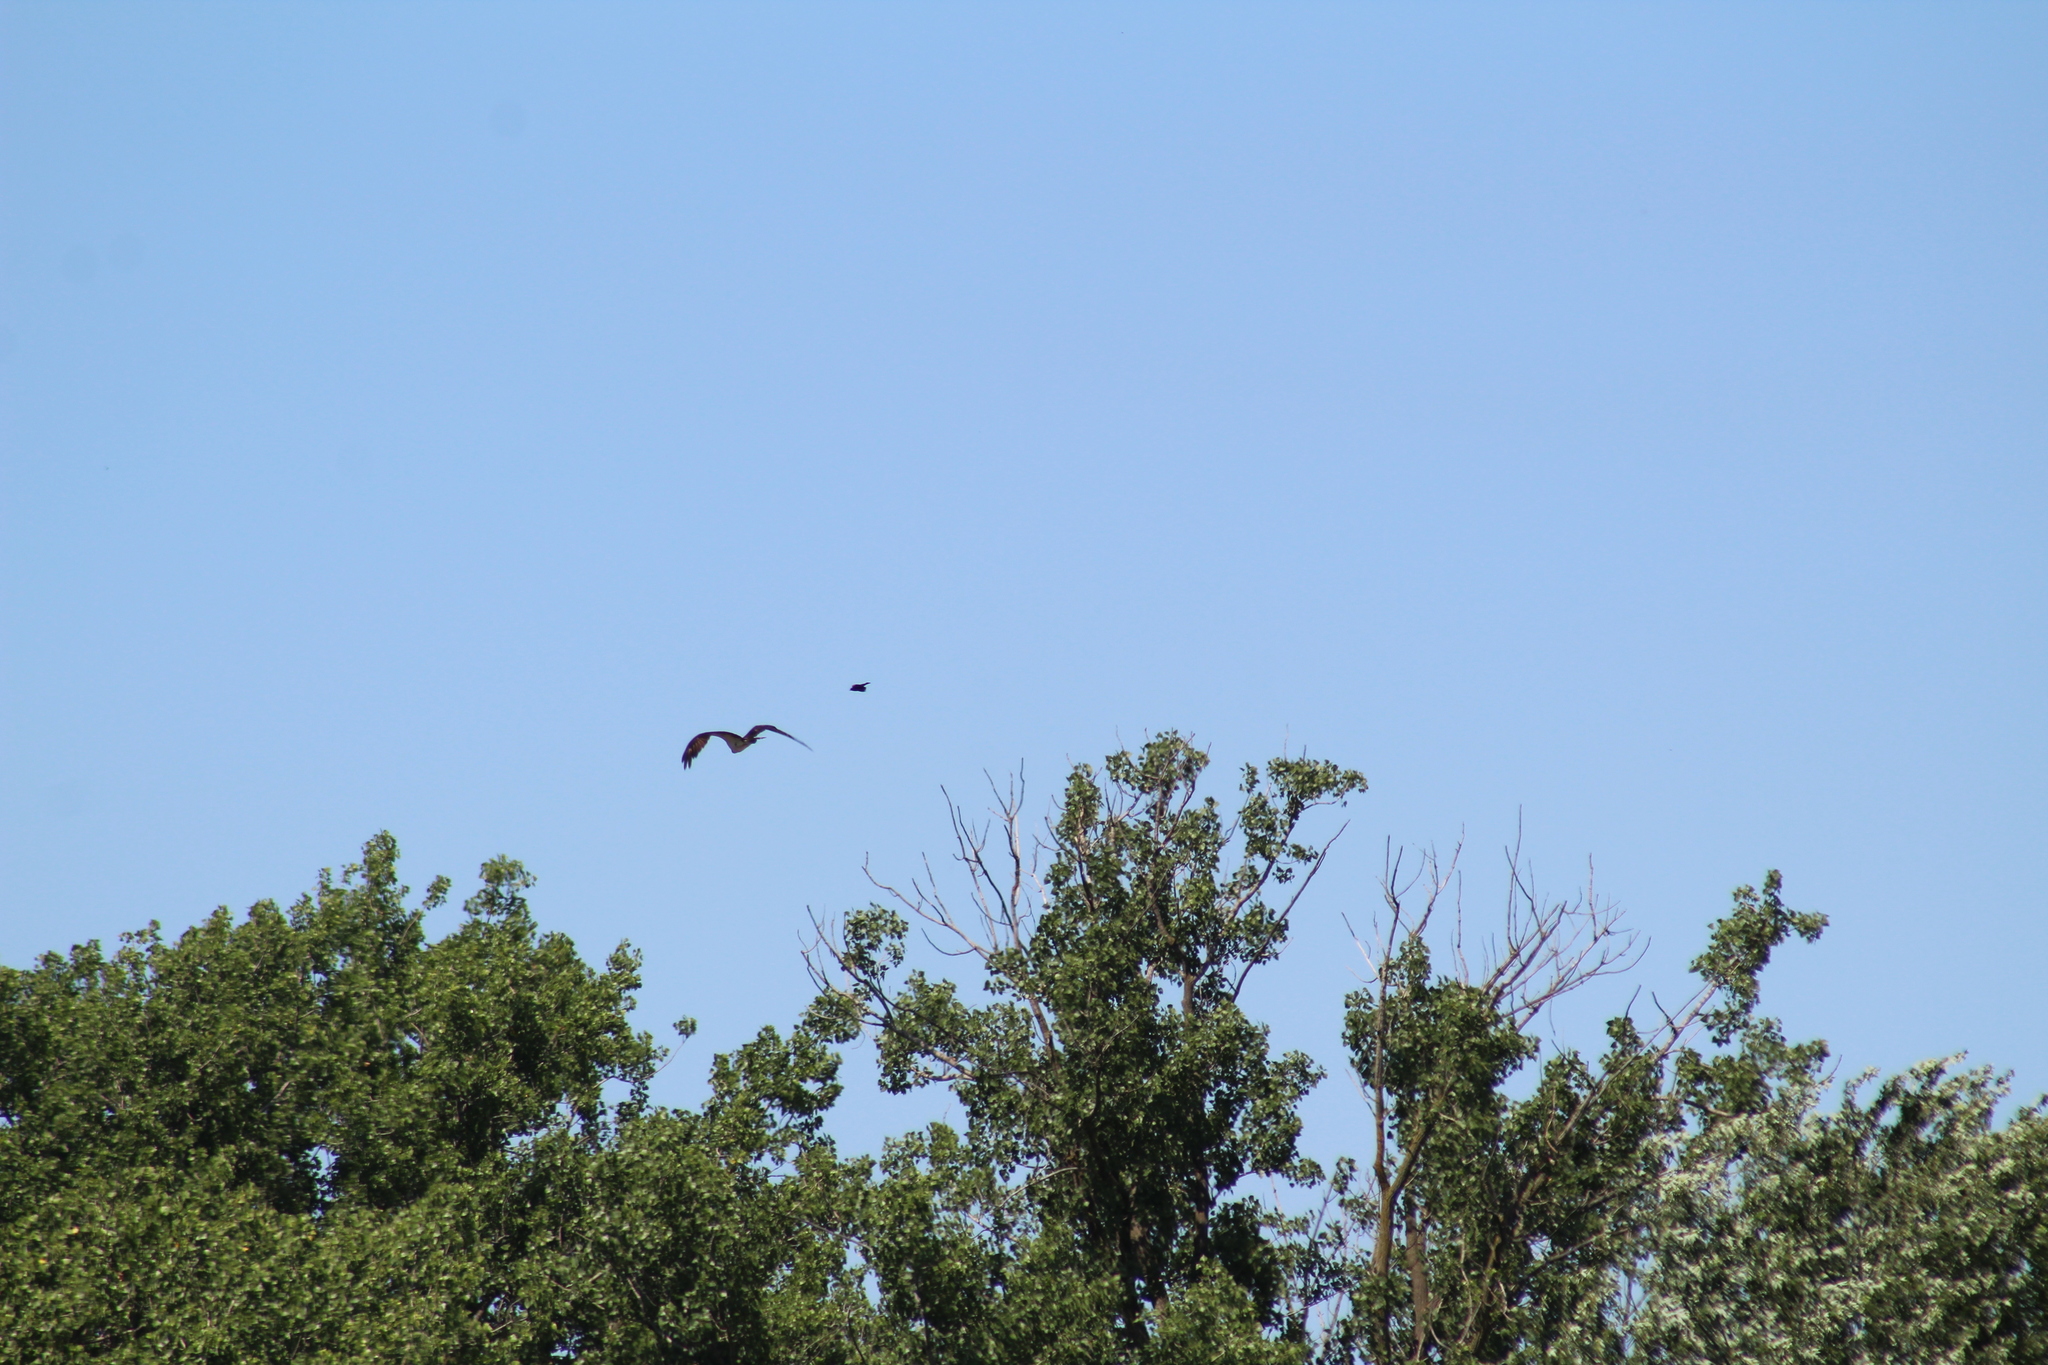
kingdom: Animalia
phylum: Chordata
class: Aves
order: Accipitriformes
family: Pandionidae
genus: Pandion
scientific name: Pandion haliaetus
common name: Osprey
